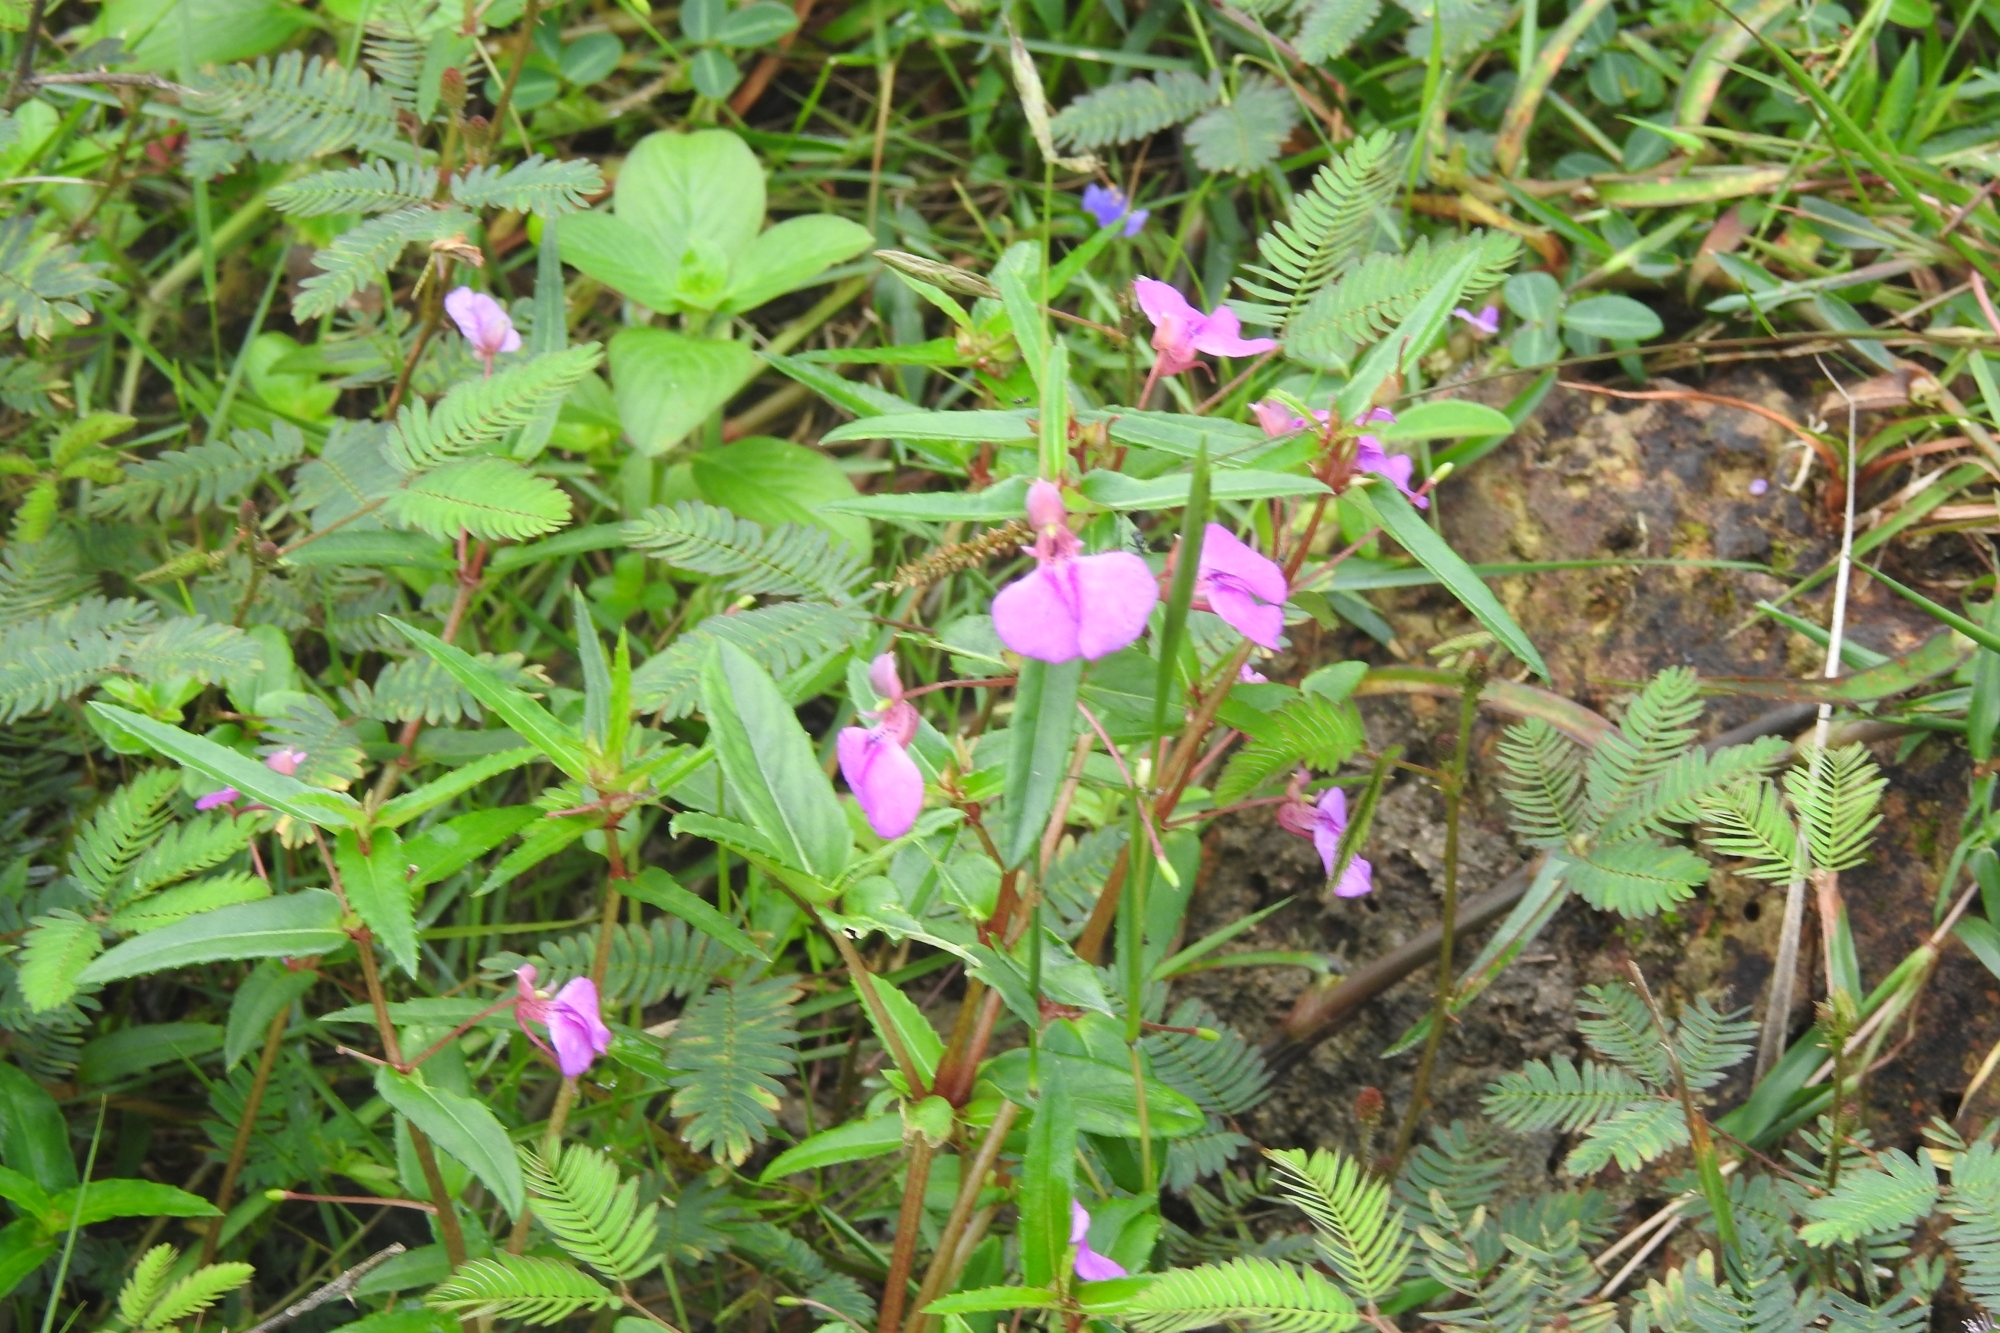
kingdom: Plantae
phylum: Tracheophyta
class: Magnoliopsida
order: Ericales
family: Balsaminaceae
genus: Impatiens
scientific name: Impatiens diversifolia
